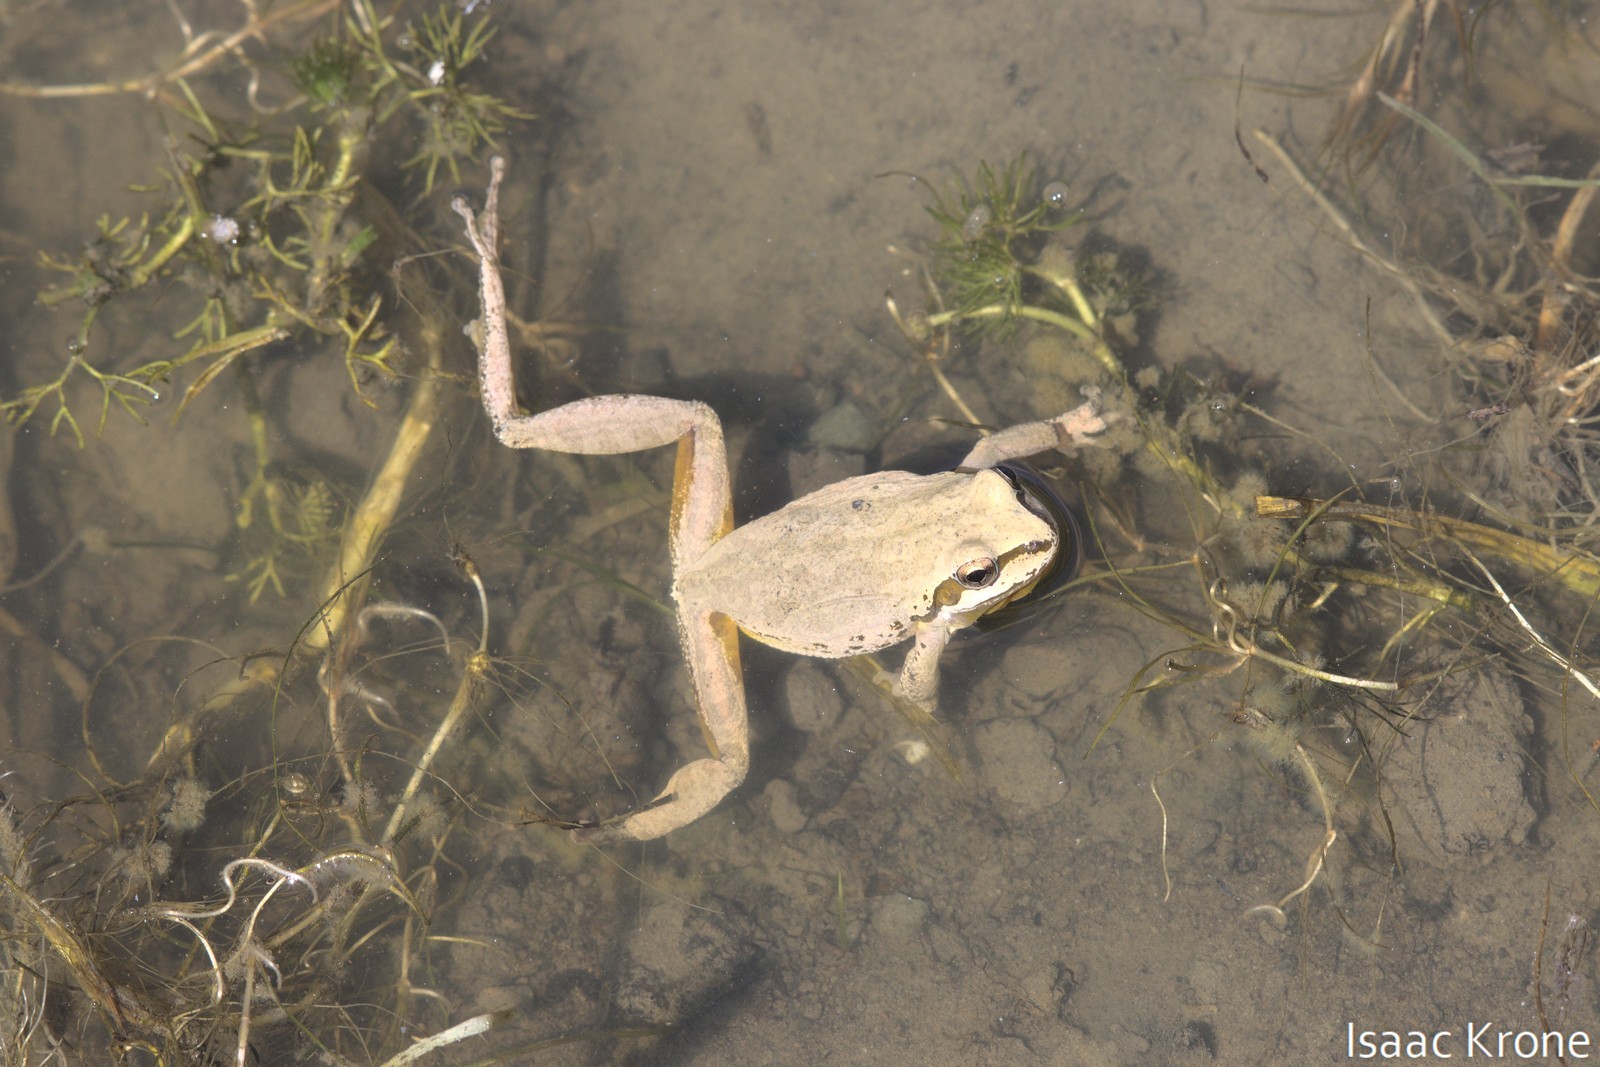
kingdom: Animalia
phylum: Chordata
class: Amphibia
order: Anura
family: Hylidae
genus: Pseudacris
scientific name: Pseudacris regilla
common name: Pacific chorus frog
